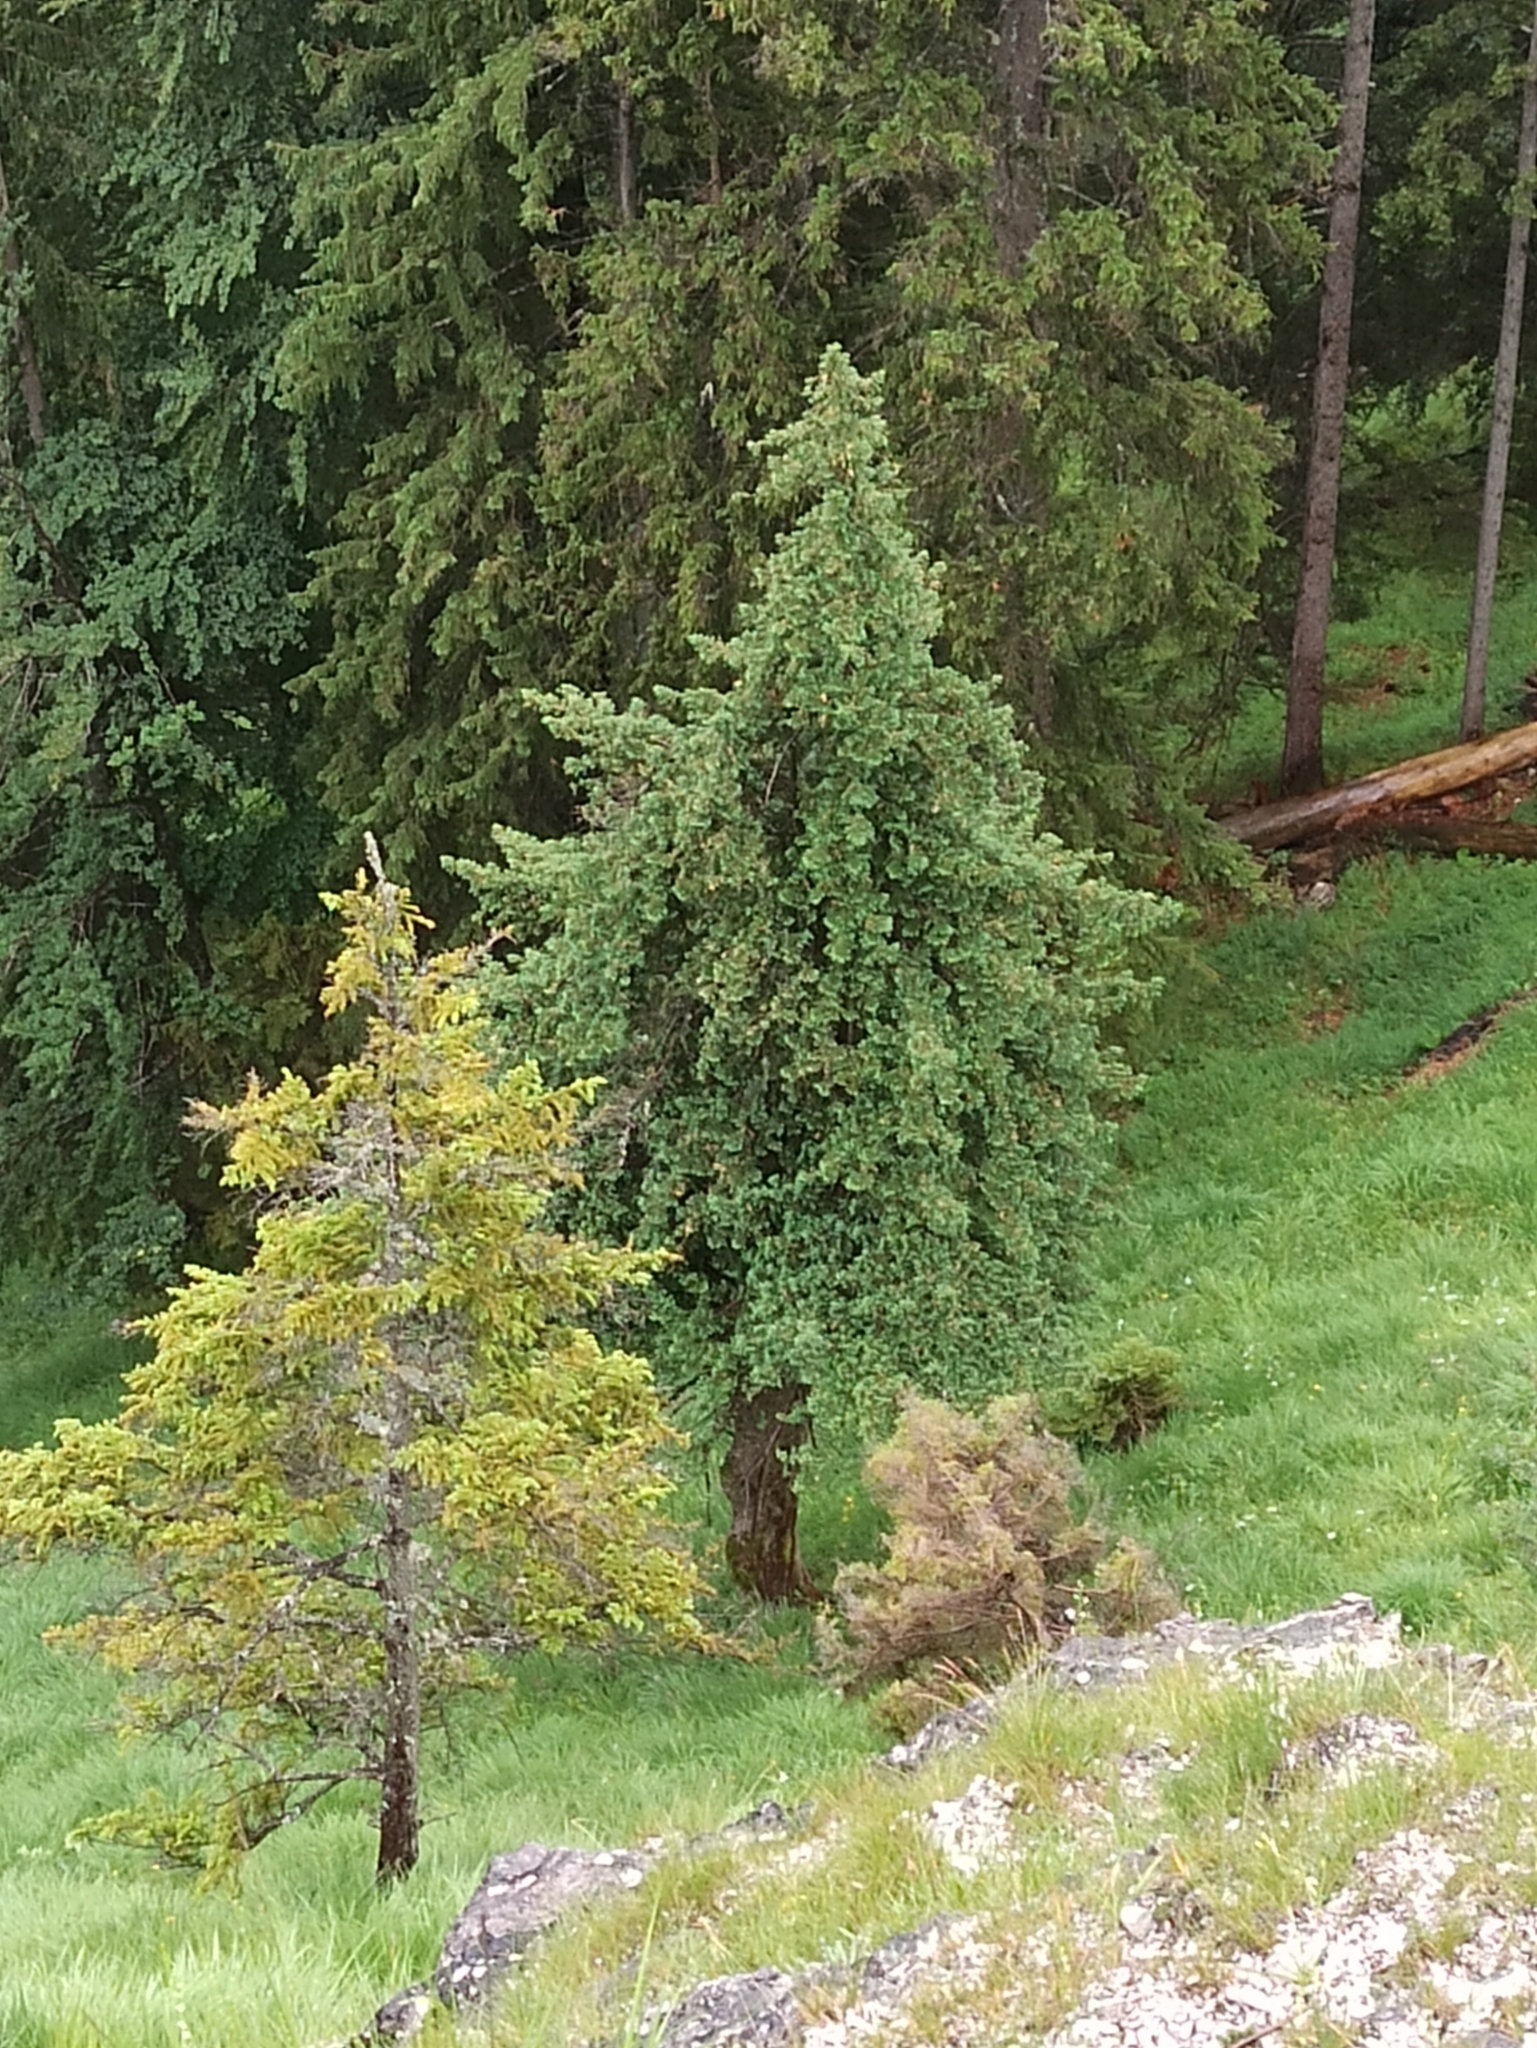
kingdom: Plantae
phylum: Tracheophyta
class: Pinopsida
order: Pinales
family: Taxaceae
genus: Taxus
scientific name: Taxus baccata
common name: Yew
